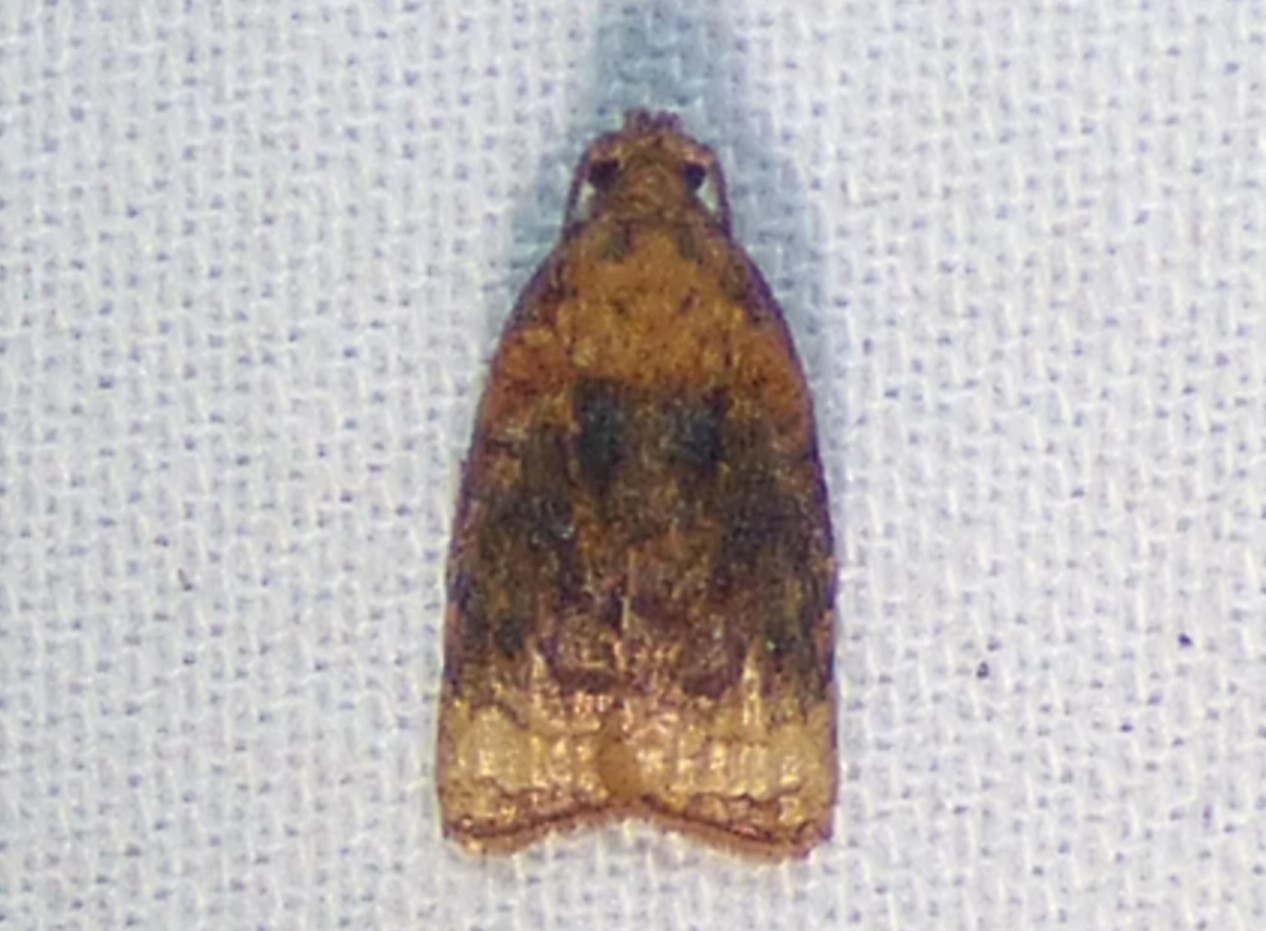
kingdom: Animalia
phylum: Arthropoda
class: Insecta
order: Lepidoptera
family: Tortricidae
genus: Platynota
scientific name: Platynota flavedana
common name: Black-shaded platynota moth
